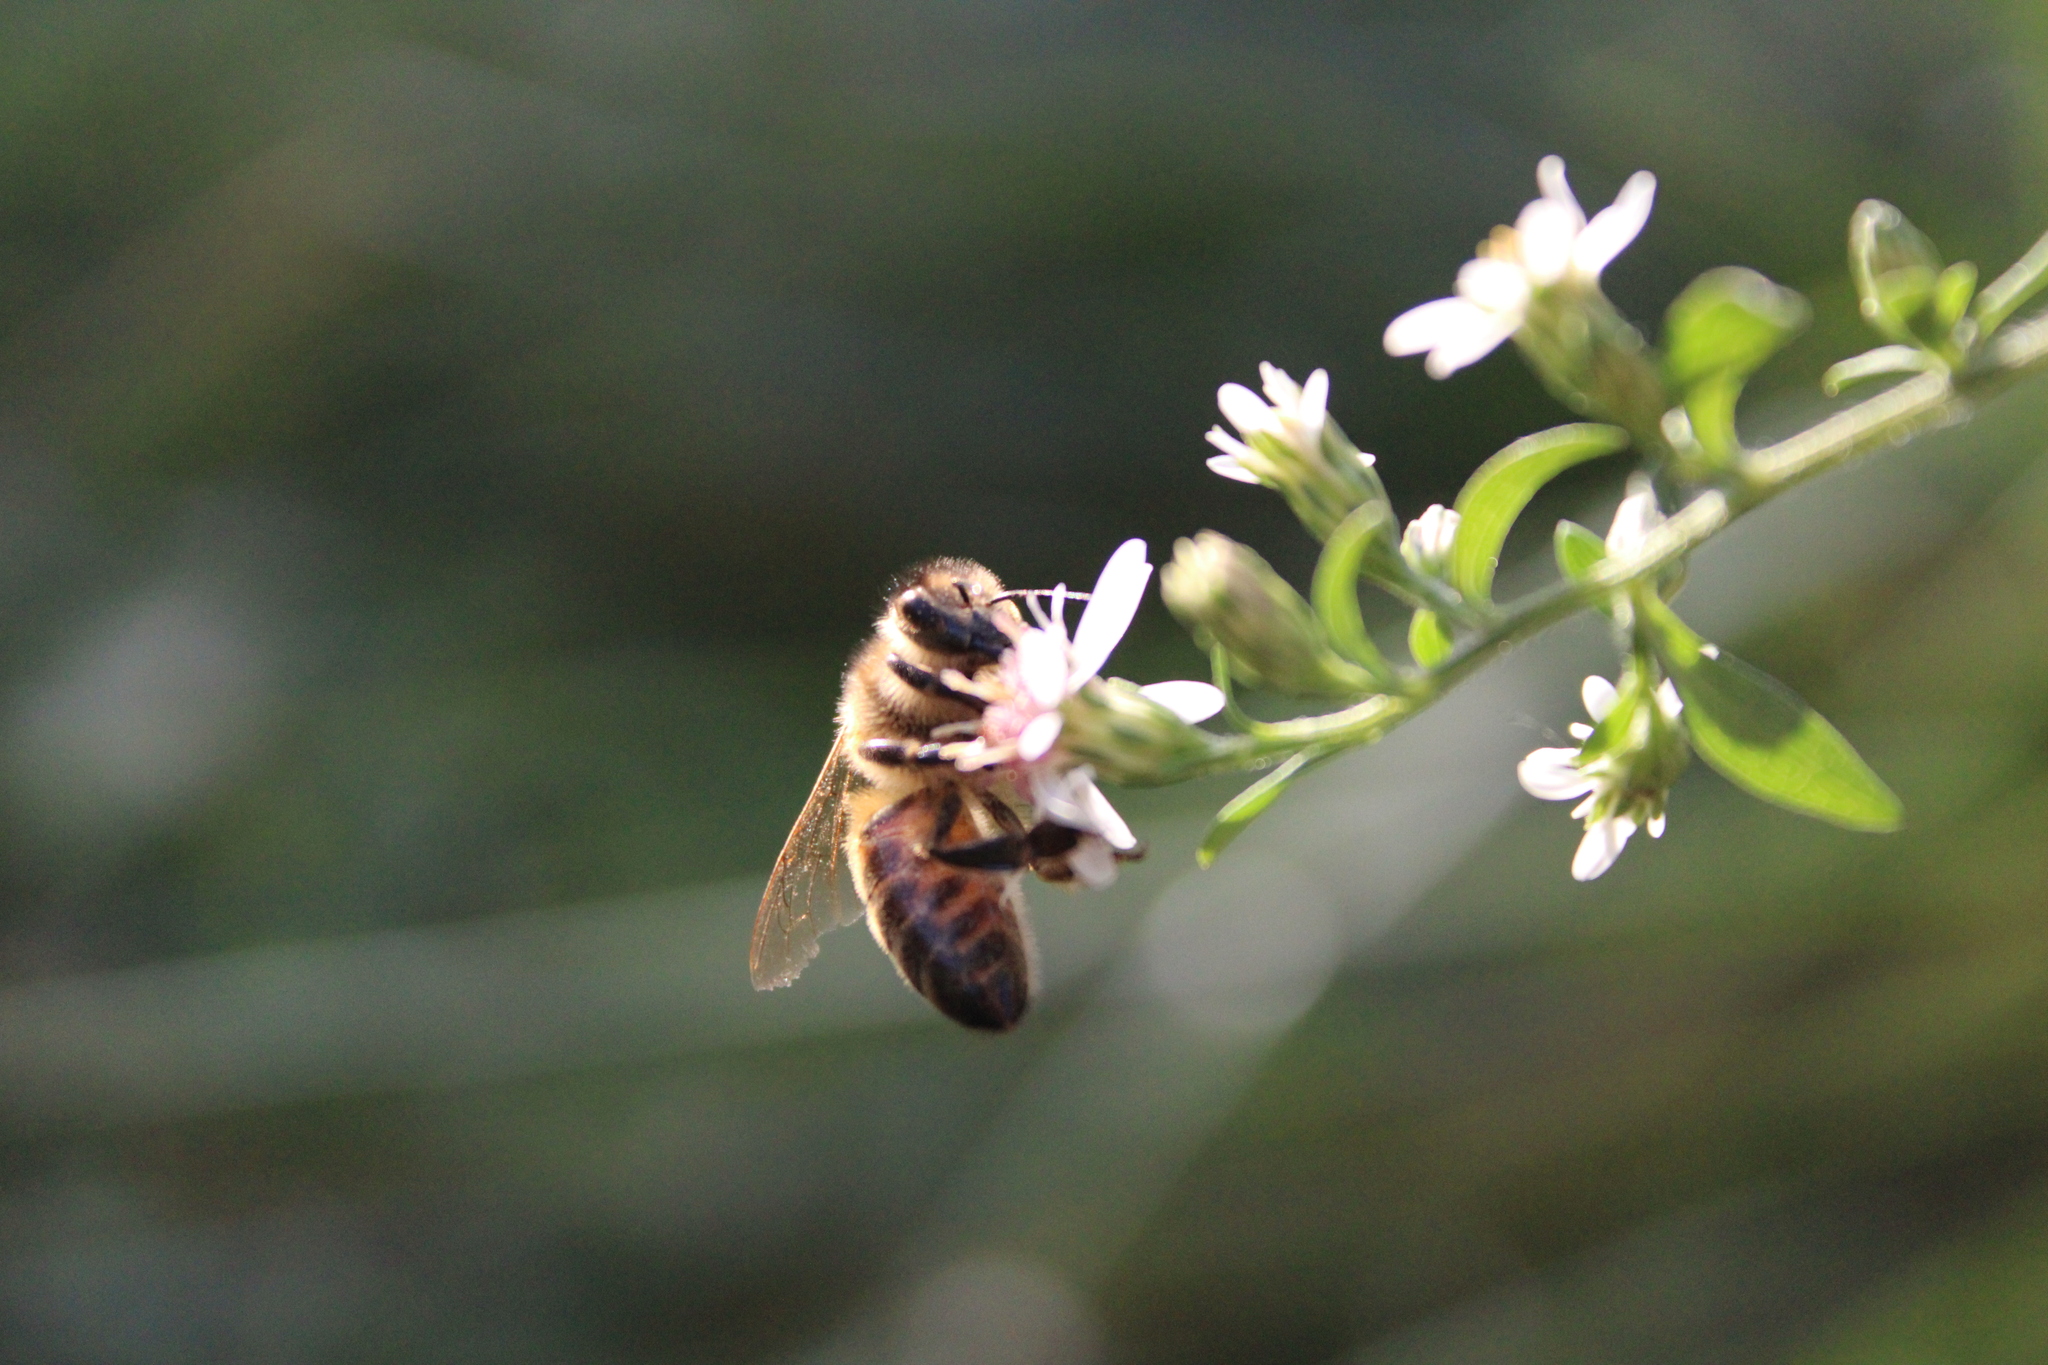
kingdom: Animalia
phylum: Arthropoda
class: Insecta
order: Hymenoptera
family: Apidae
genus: Apis
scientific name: Apis mellifera
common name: Honey bee
